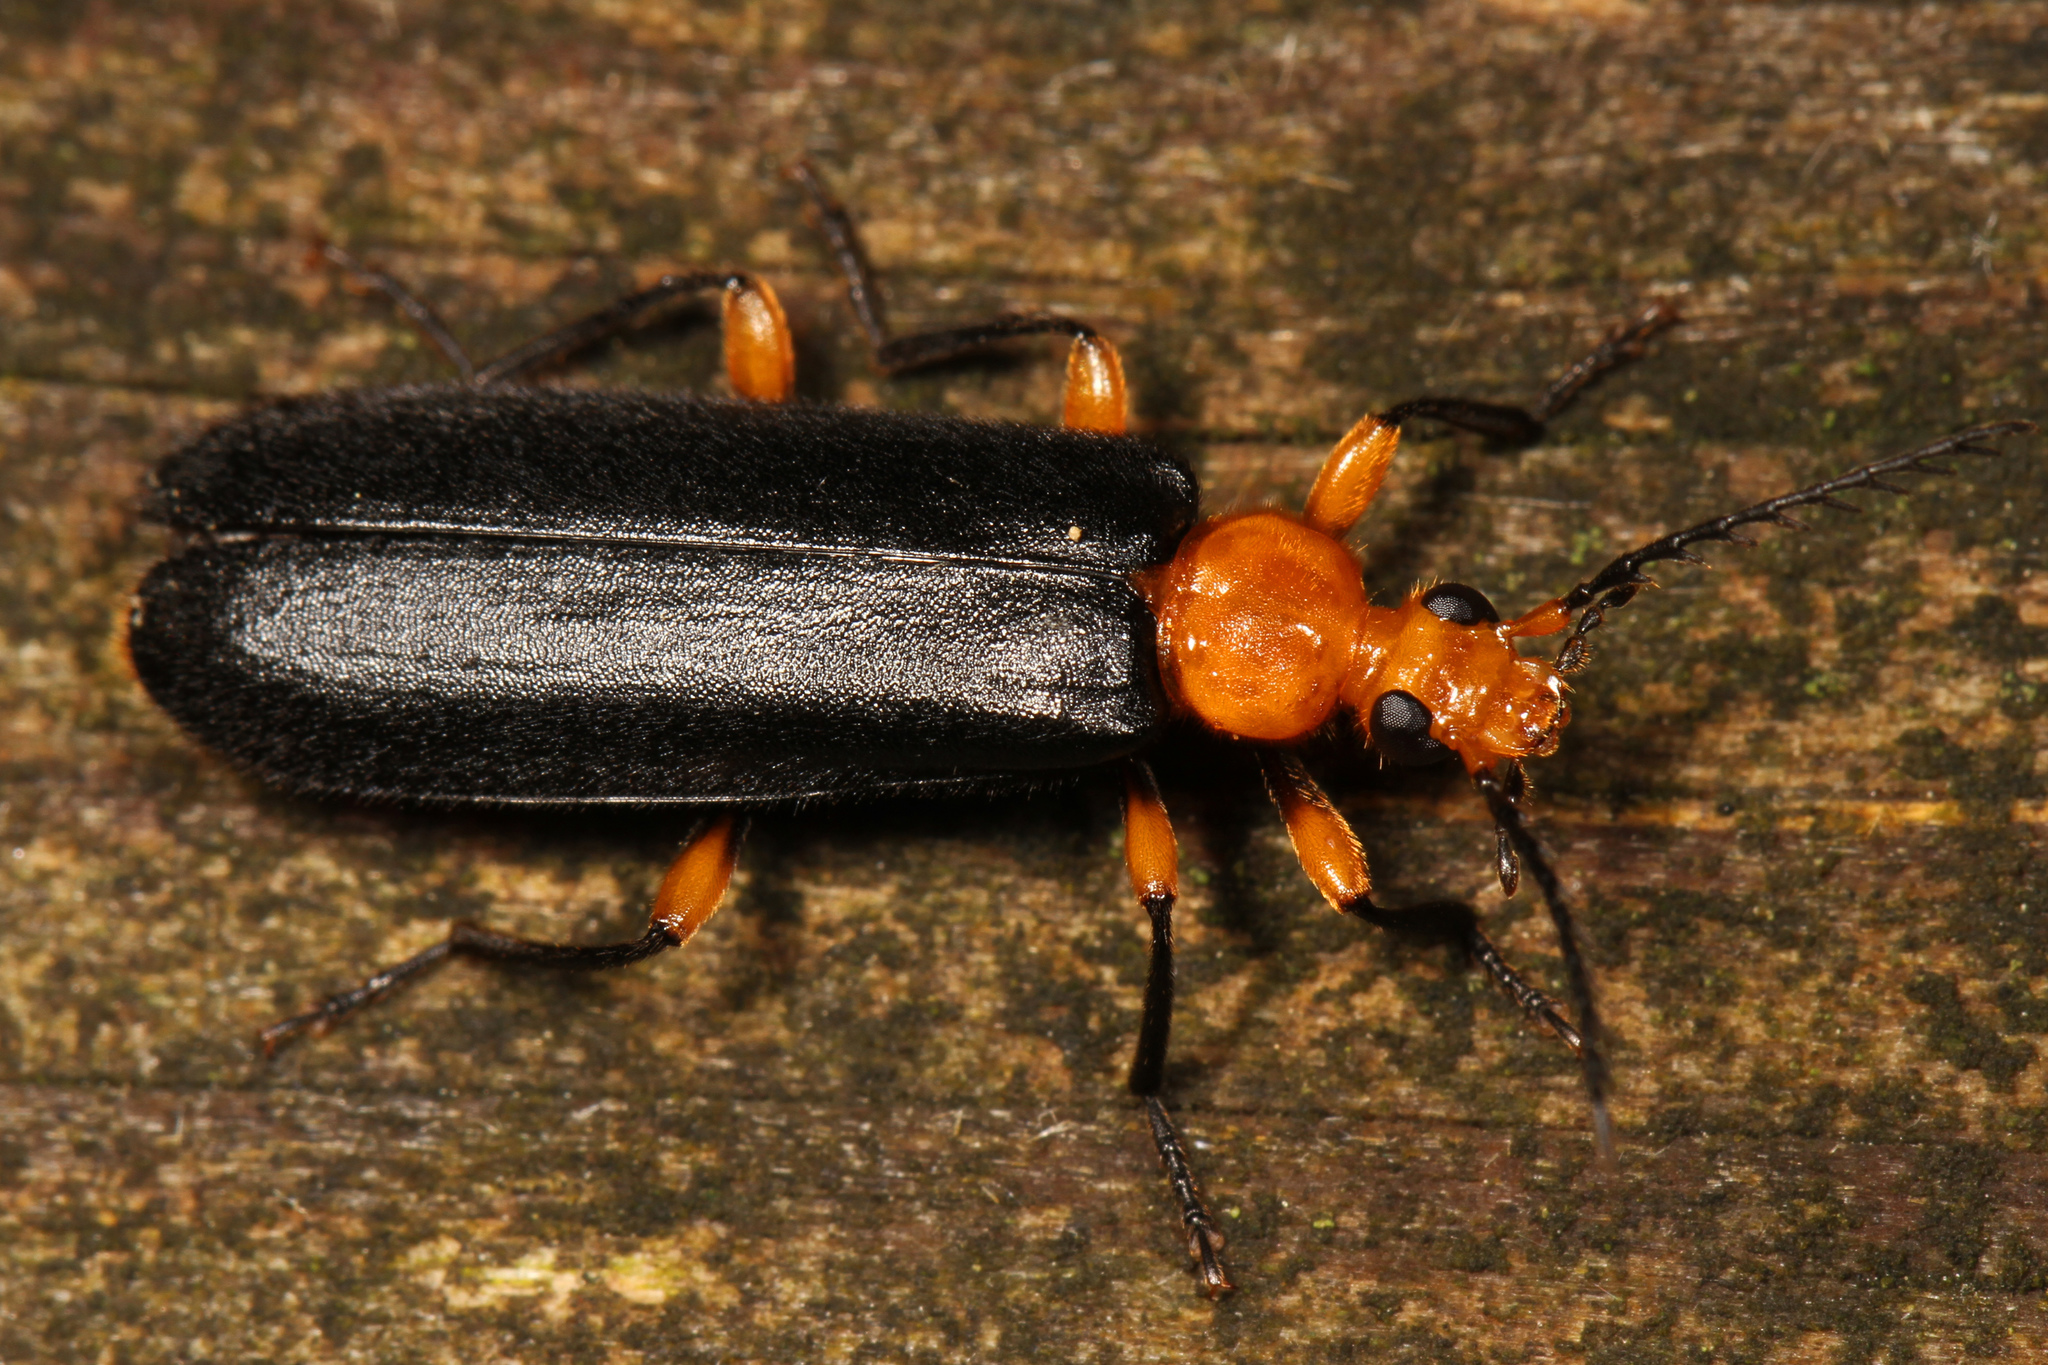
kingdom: Animalia
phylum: Arthropoda
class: Insecta
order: Coleoptera
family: Pyrochroidae
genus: Neopyrochroa
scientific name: Neopyrochroa femoralis
